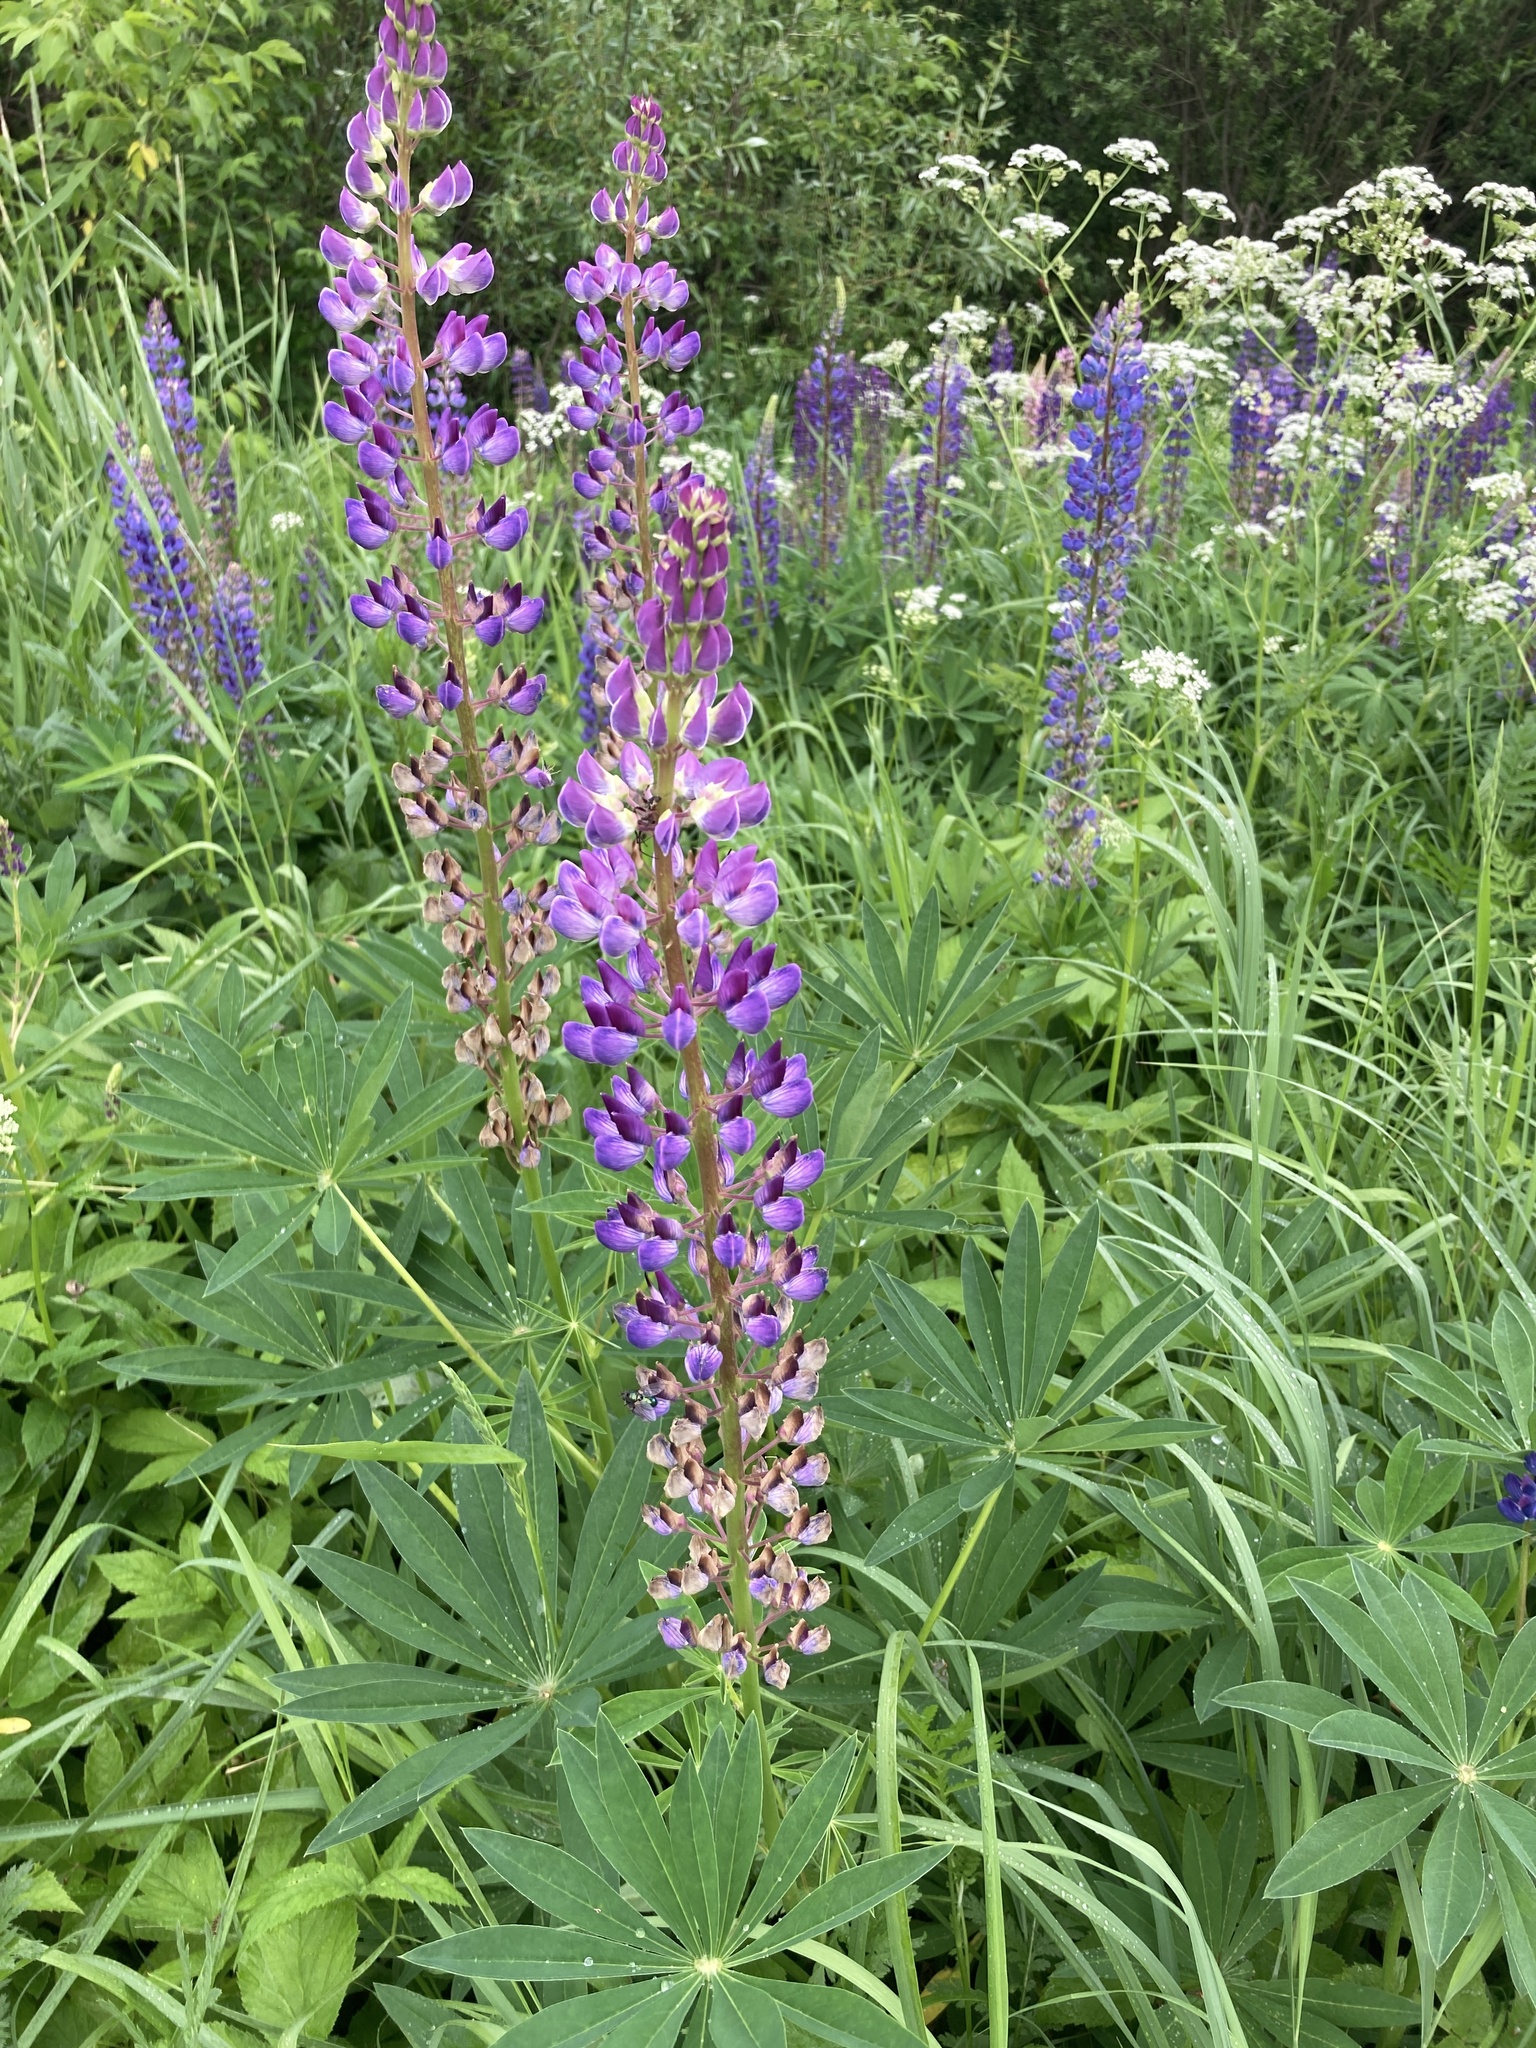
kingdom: Plantae
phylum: Tracheophyta
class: Magnoliopsida
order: Fabales
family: Fabaceae
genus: Lupinus
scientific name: Lupinus polyphyllus
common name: Garden lupin
